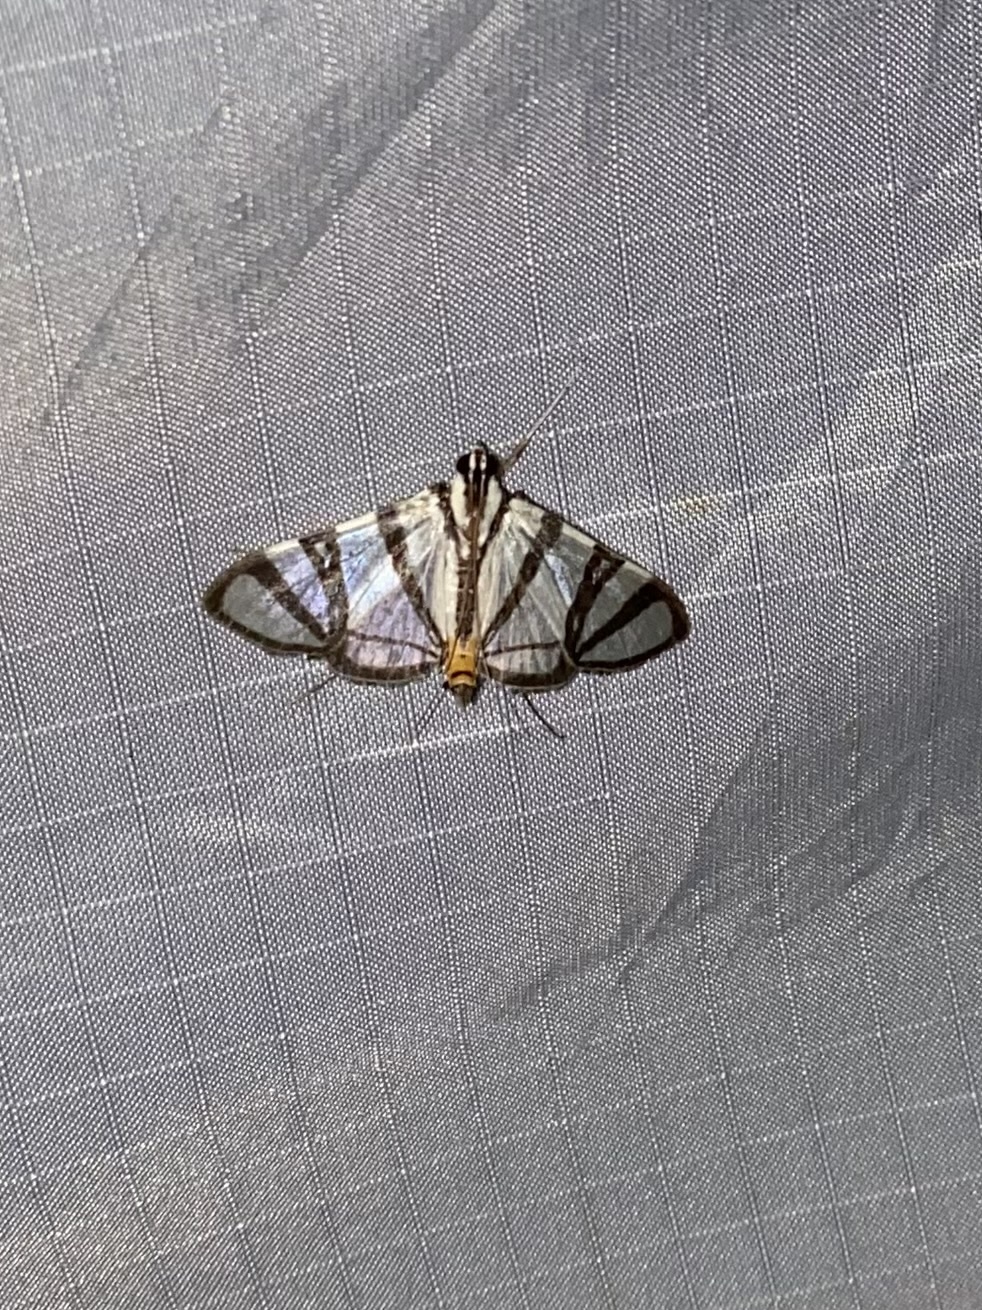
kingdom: Animalia
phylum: Arthropoda
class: Insecta
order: Lepidoptera
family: Crambidae
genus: Conchylodes
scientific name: Conchylodes nolckenialis
